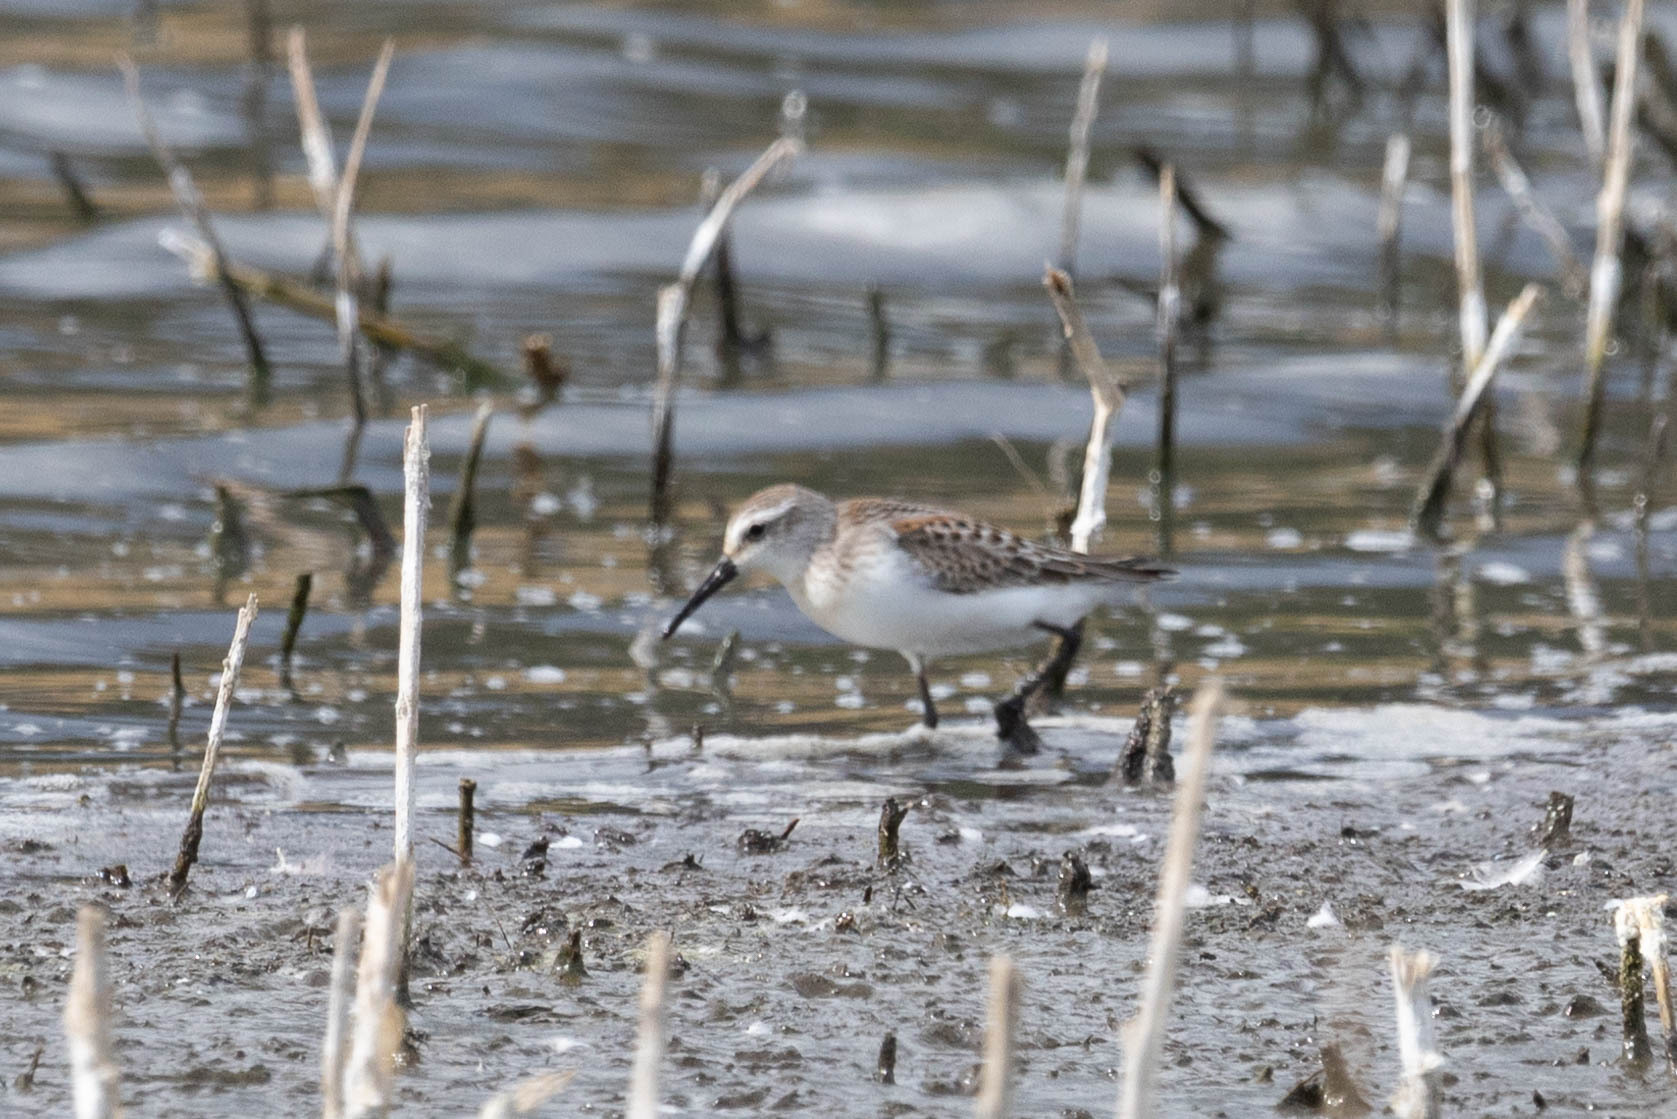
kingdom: Animalia
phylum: Chordata
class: Aves
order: Charadriiformes
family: Scolopacidae
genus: Calidris
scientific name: Calidris mauri
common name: Western sandpiper
